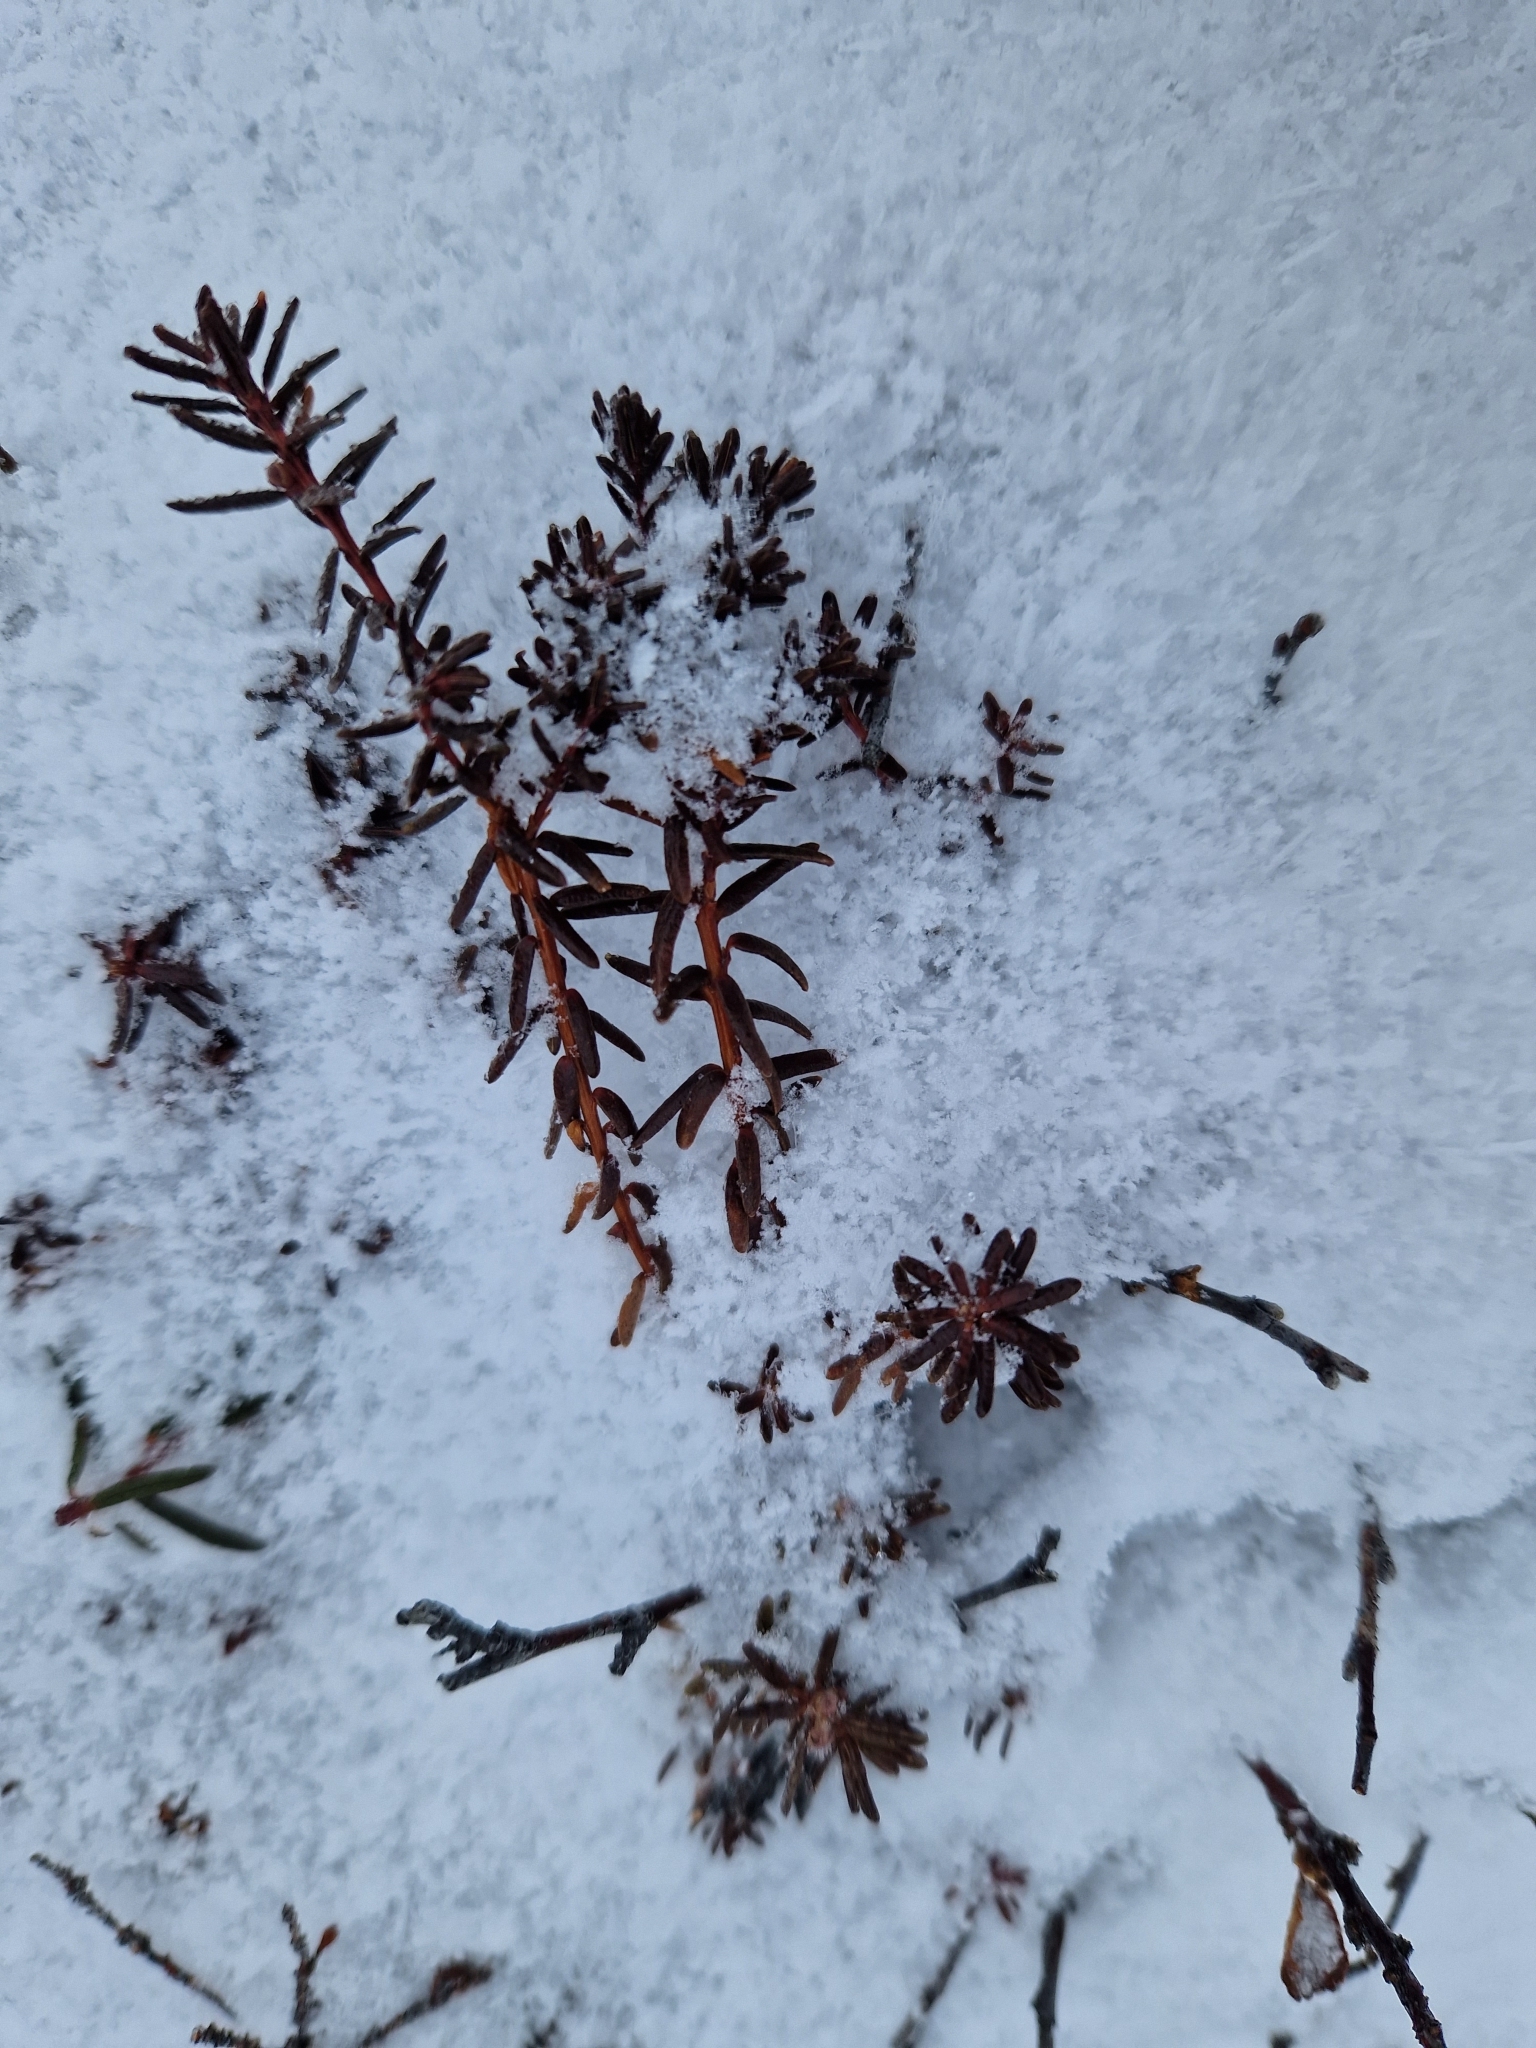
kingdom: Plantae
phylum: Tracheophyta
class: Magnoliopsida
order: Ericales
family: Ericaceae
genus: Rhododendron
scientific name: Rhododendron tomentosum
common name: Marsh labrador tea
